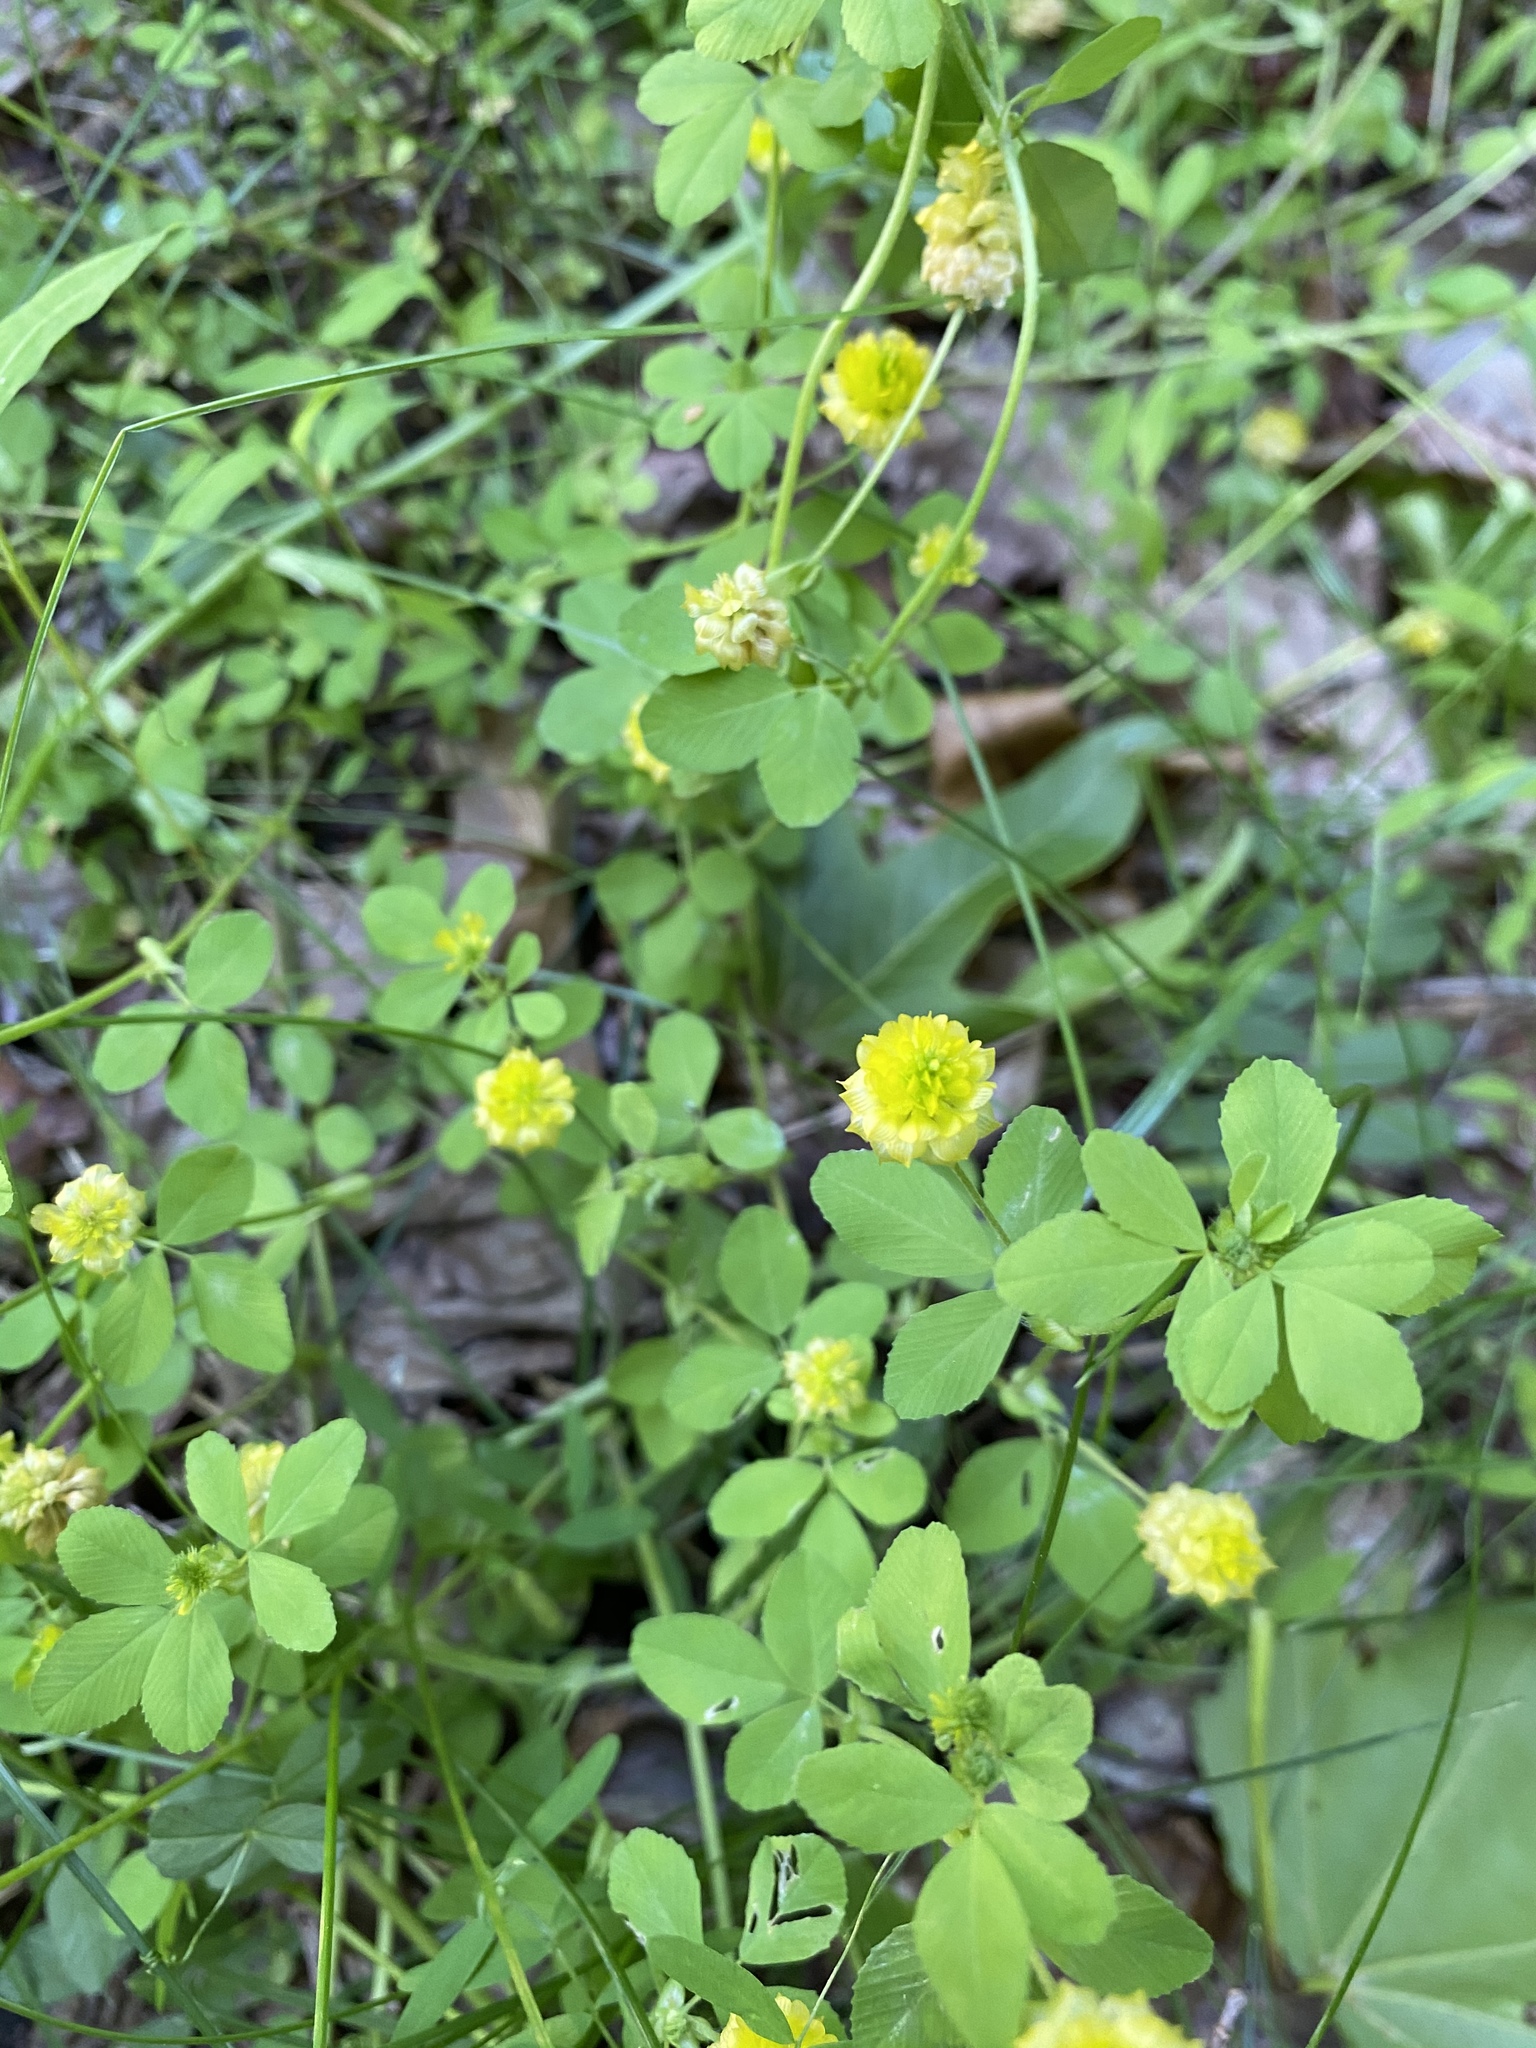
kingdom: Plantae
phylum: Tracheophyta
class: Magnoliopsida
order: Fabales
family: Fabaceae
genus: Trifolium
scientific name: Trifolium campestre
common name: Field clover
